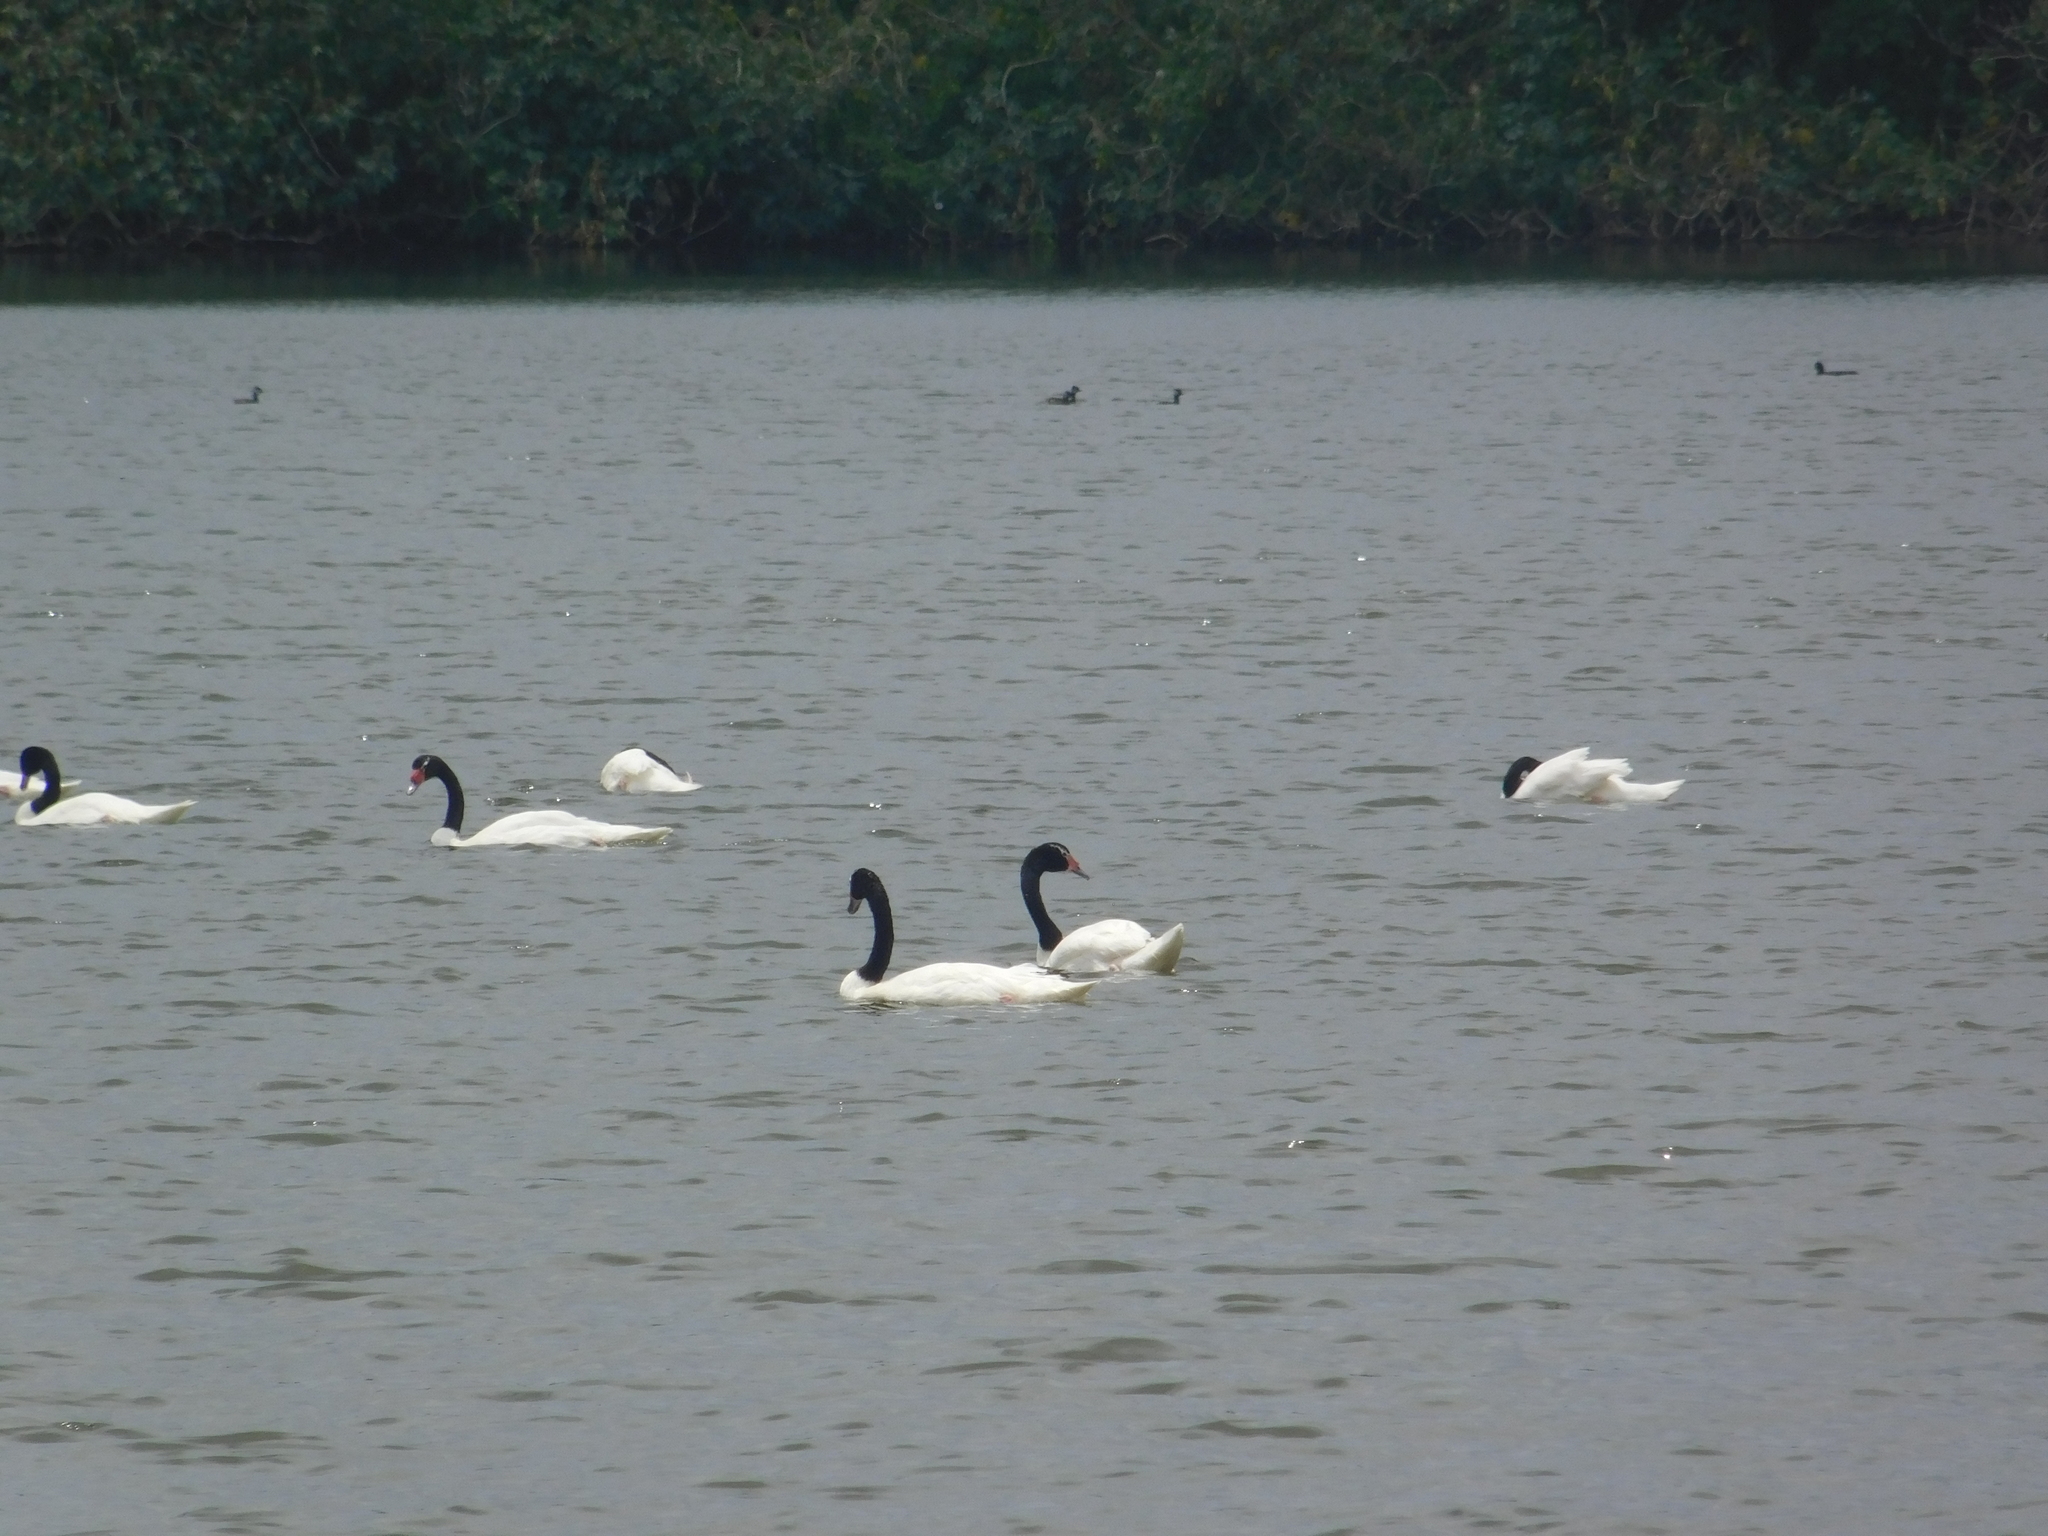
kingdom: Animalia
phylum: Chordata
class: Aves
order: Anseriformes
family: Anatidae
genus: Cygnus
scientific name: Cygnus melancoryphus
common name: Black-necked swan
